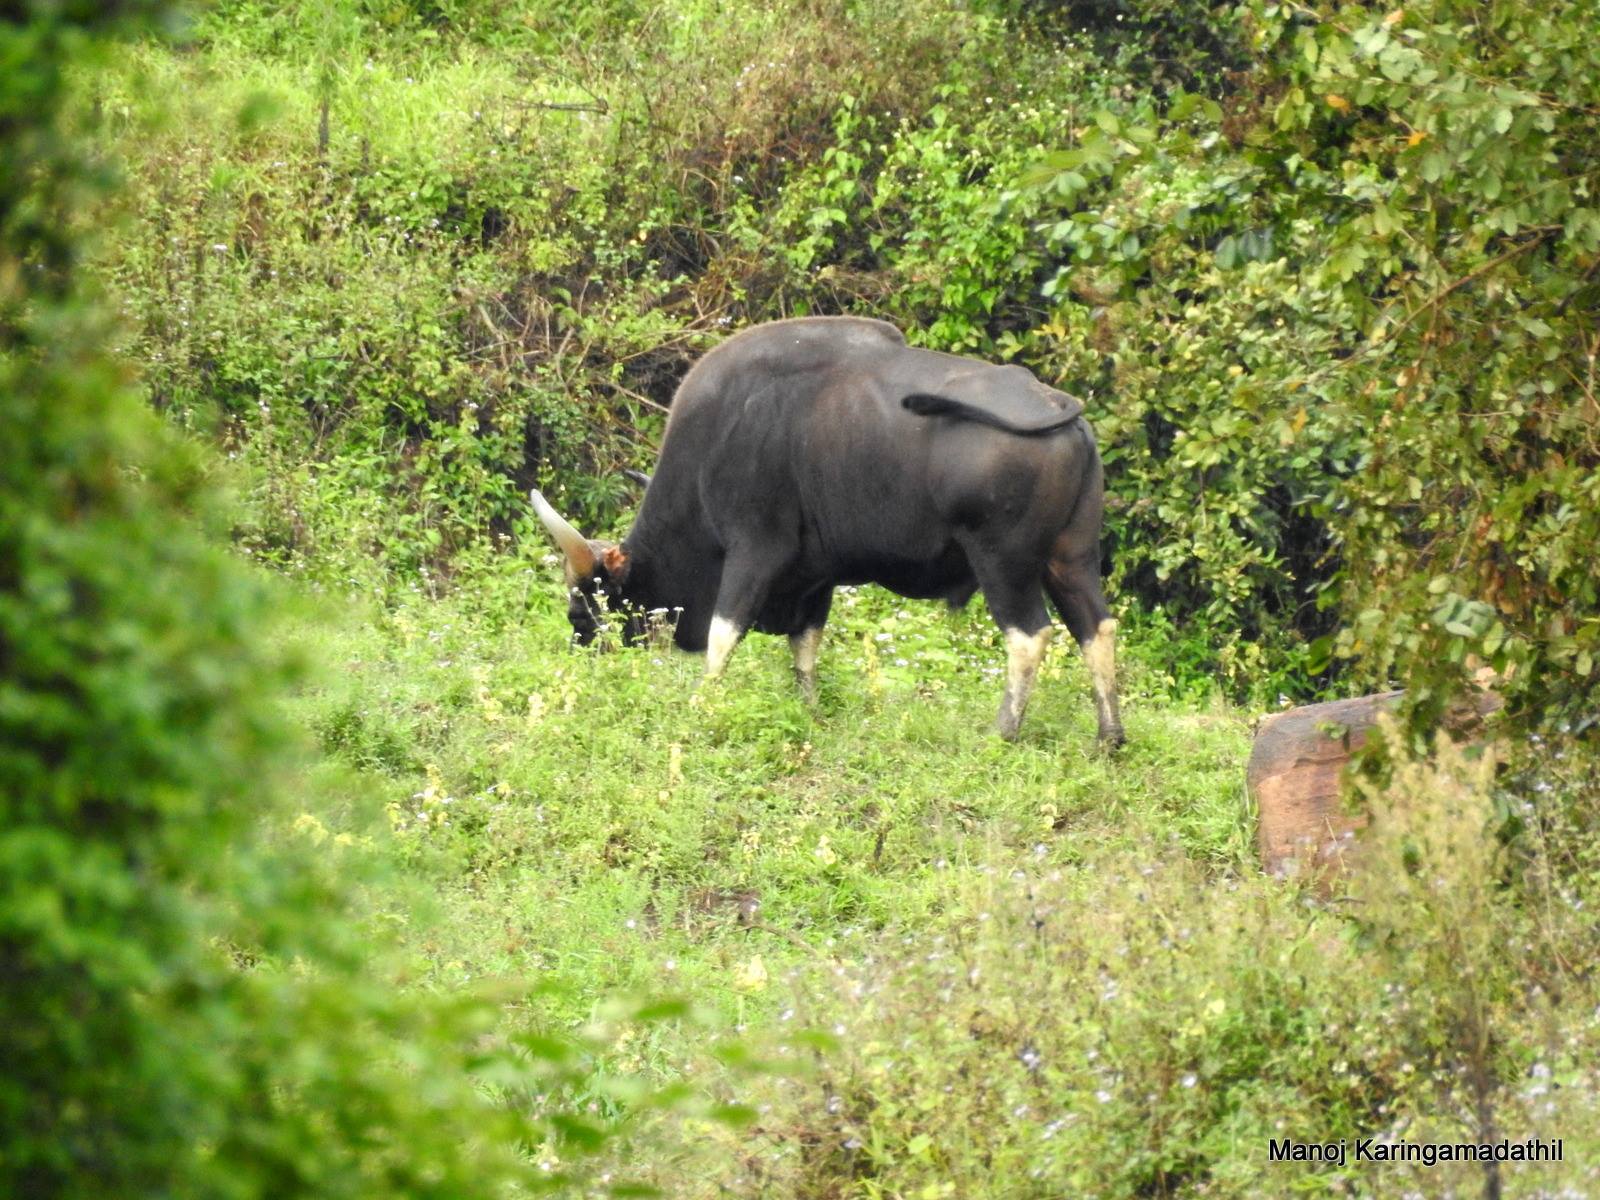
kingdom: Animalia
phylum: Chordata
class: Mammalia
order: Artiodactyla
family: Bovidae
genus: Bos
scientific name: Bos frontalis
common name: Gaur
